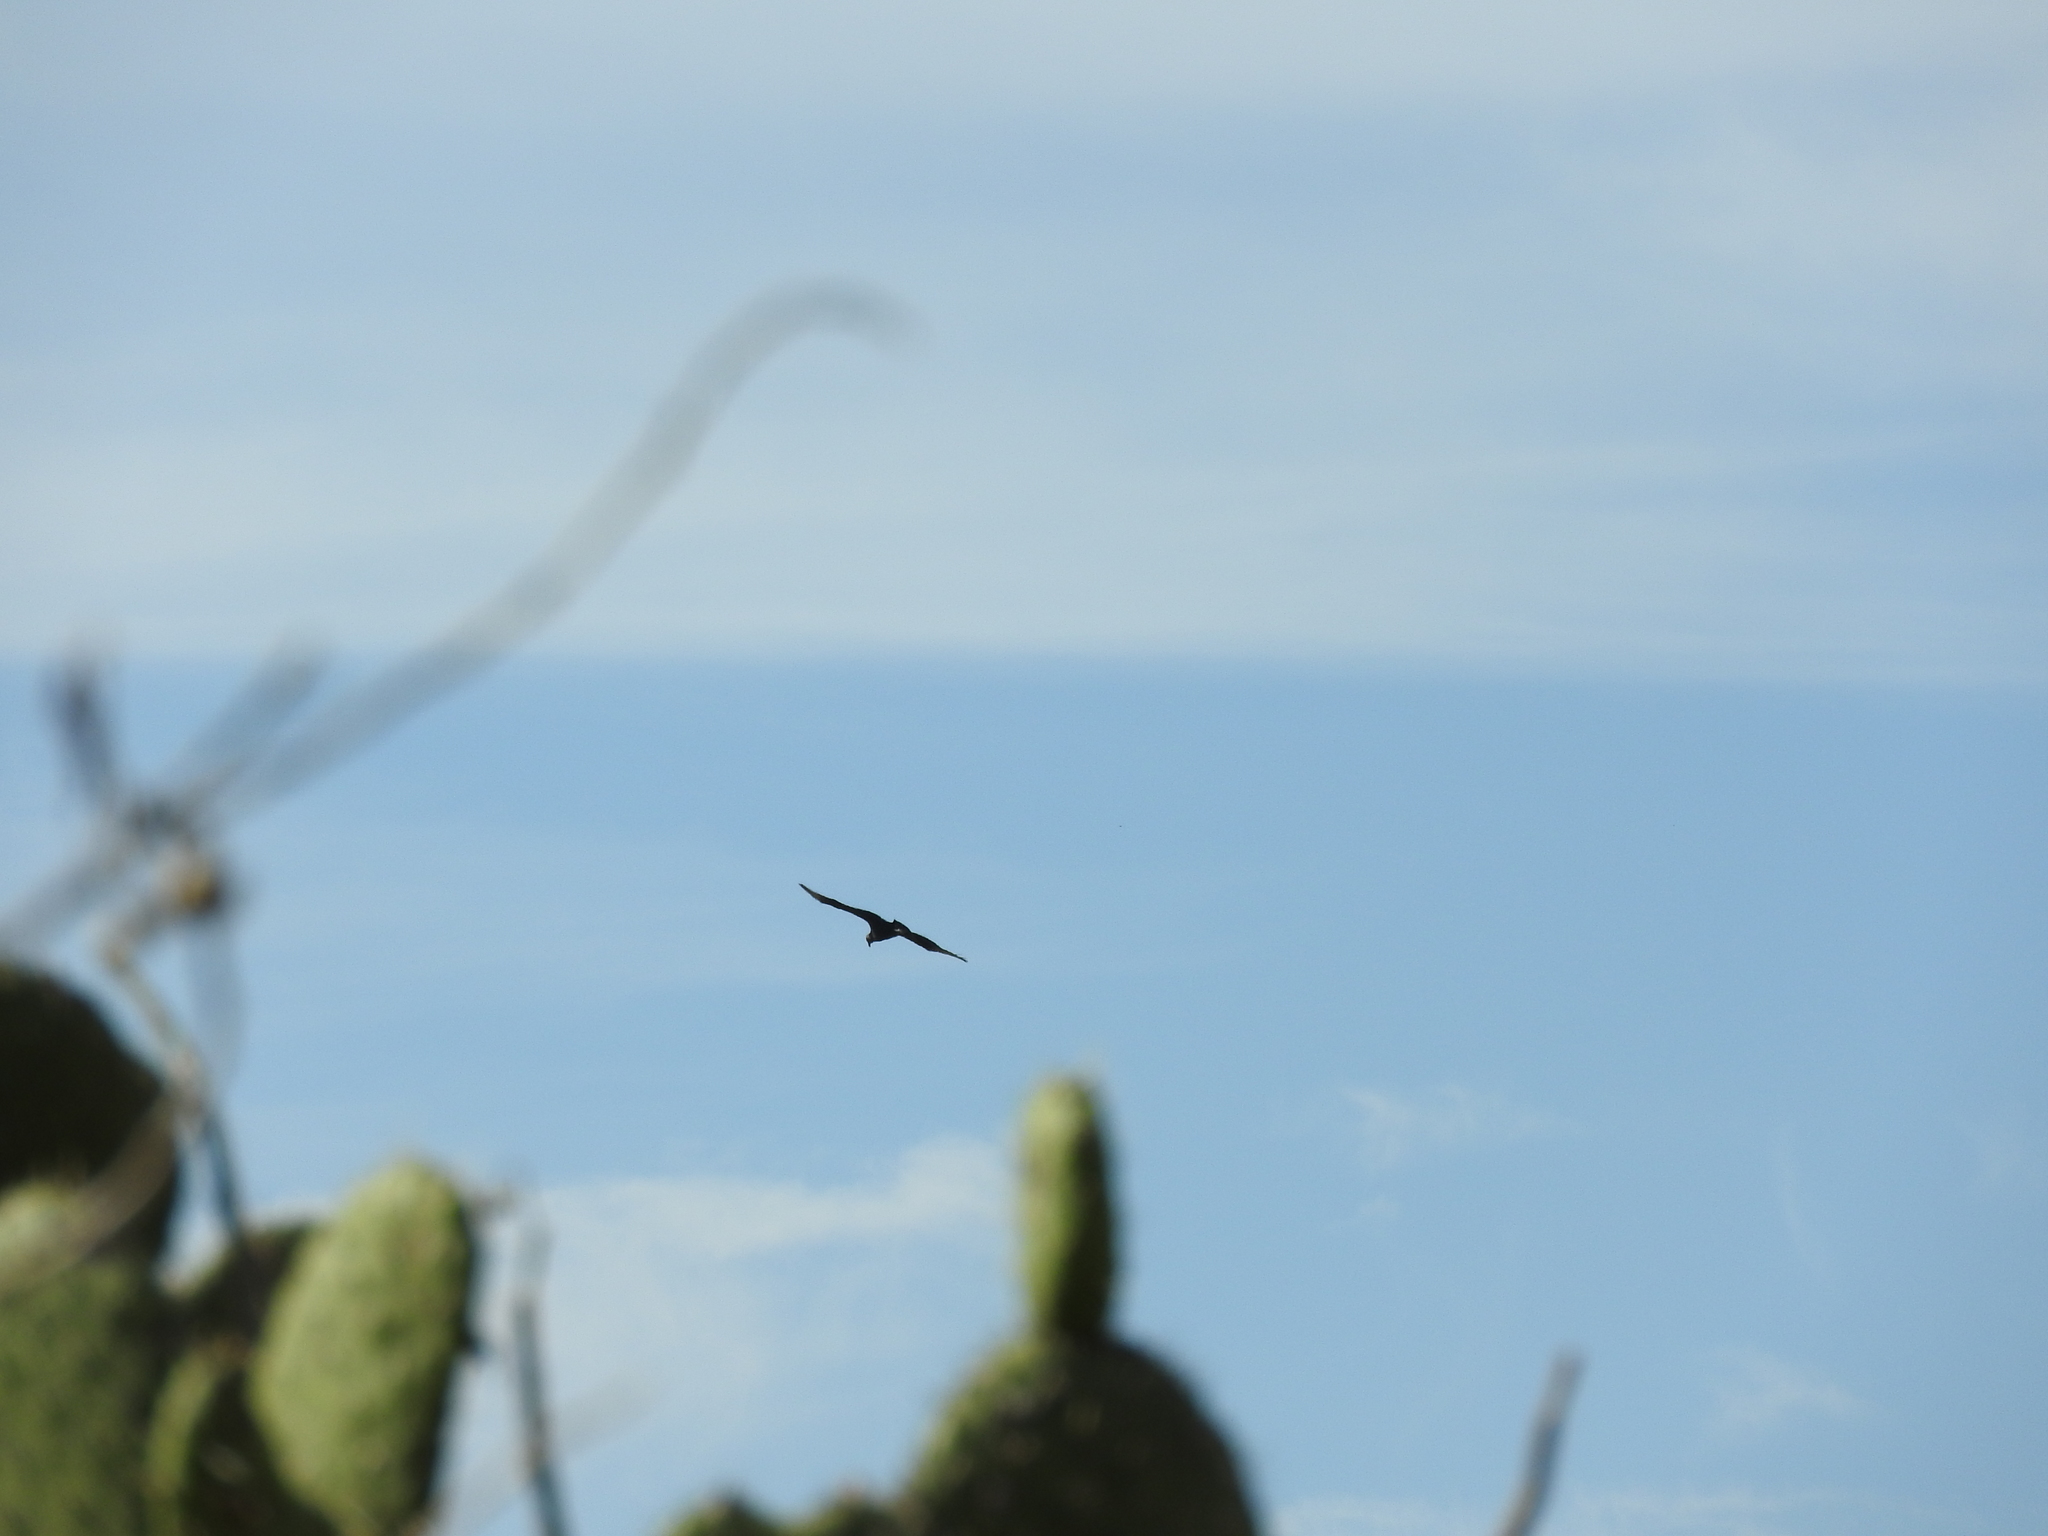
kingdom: Animalia
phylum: Chordata
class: Aves
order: Accipitriformes
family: Cathartidae
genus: Coragyps
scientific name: Coragyps atratus
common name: Black vulture
